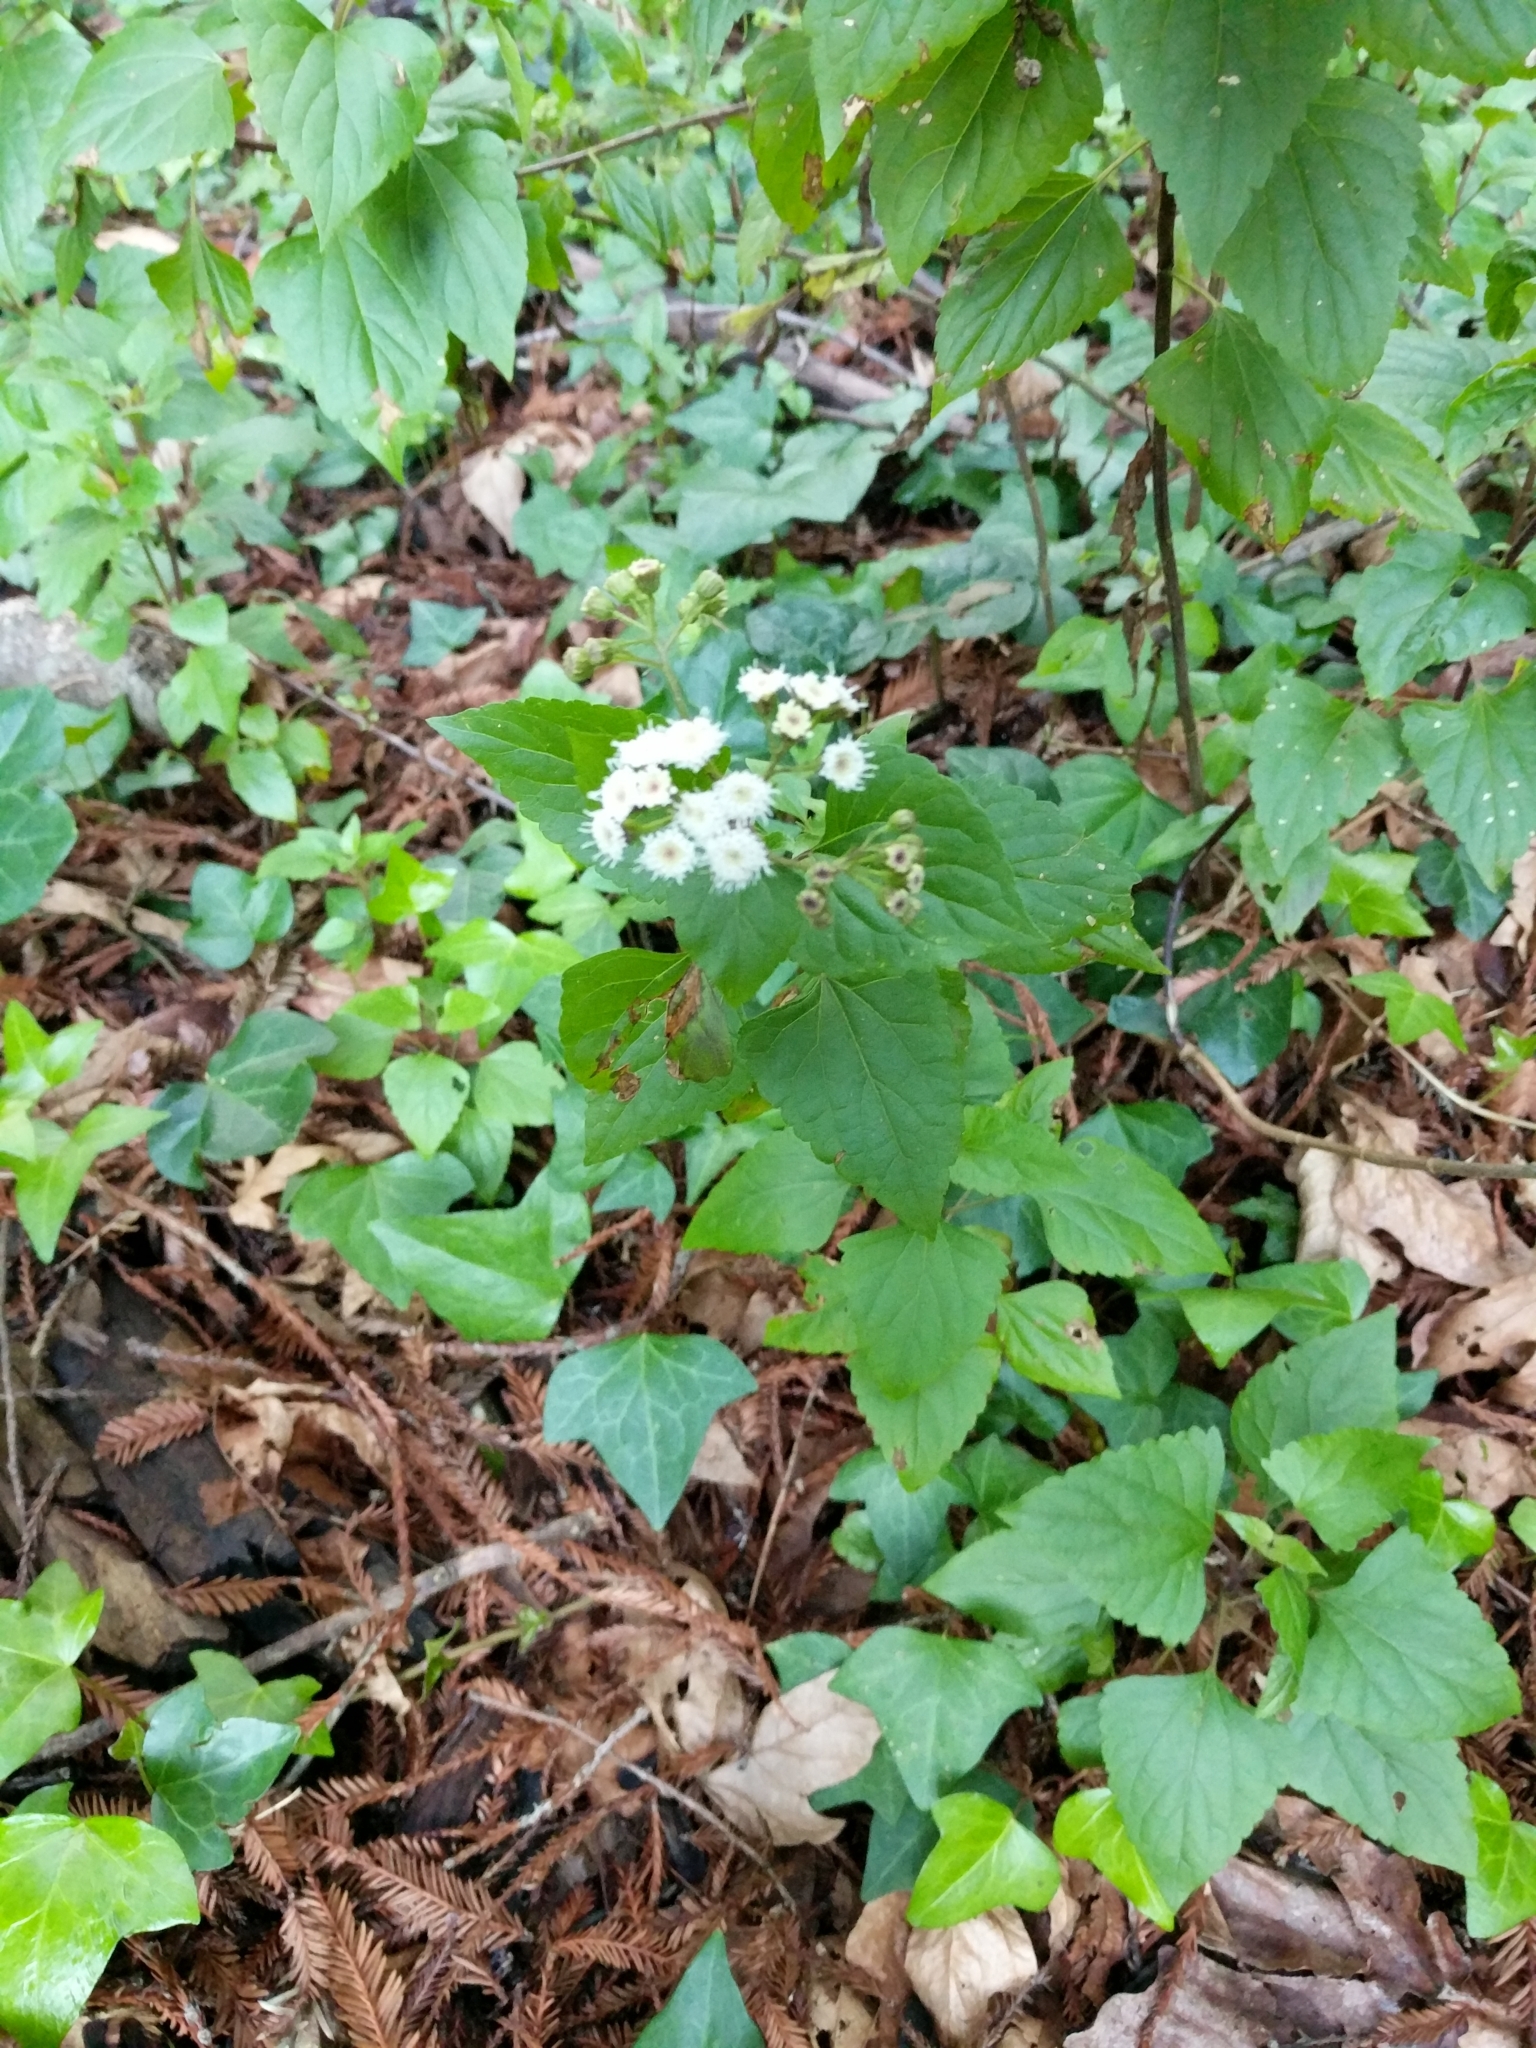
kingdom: Plantae
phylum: Tracheophyta
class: Magnoliopsida
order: Asterales
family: Asteraceae
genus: Ageratina
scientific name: Ageratina adenophora
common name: Sticky snakeroot
